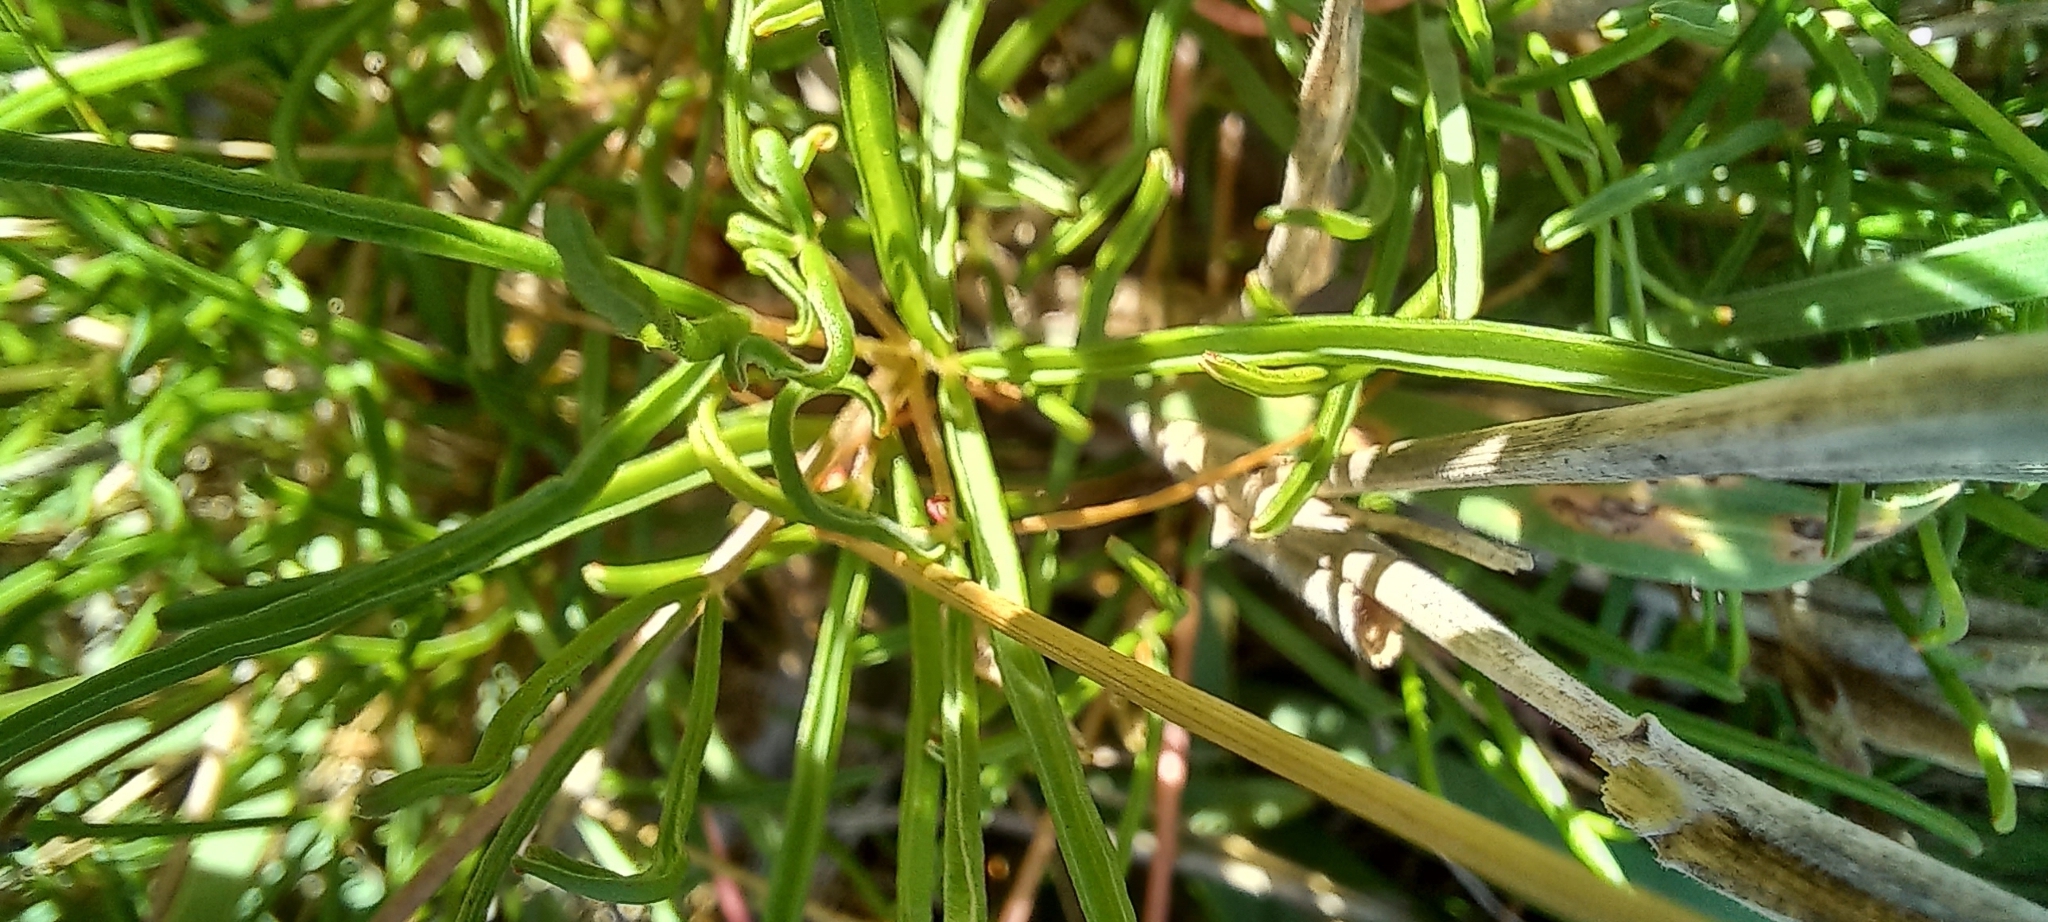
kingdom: Plantae
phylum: Tracheophyta
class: Magnoliopsida
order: Oxalidales
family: Oxalidaceae
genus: Oxalis
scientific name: Oxalis polyphylla
